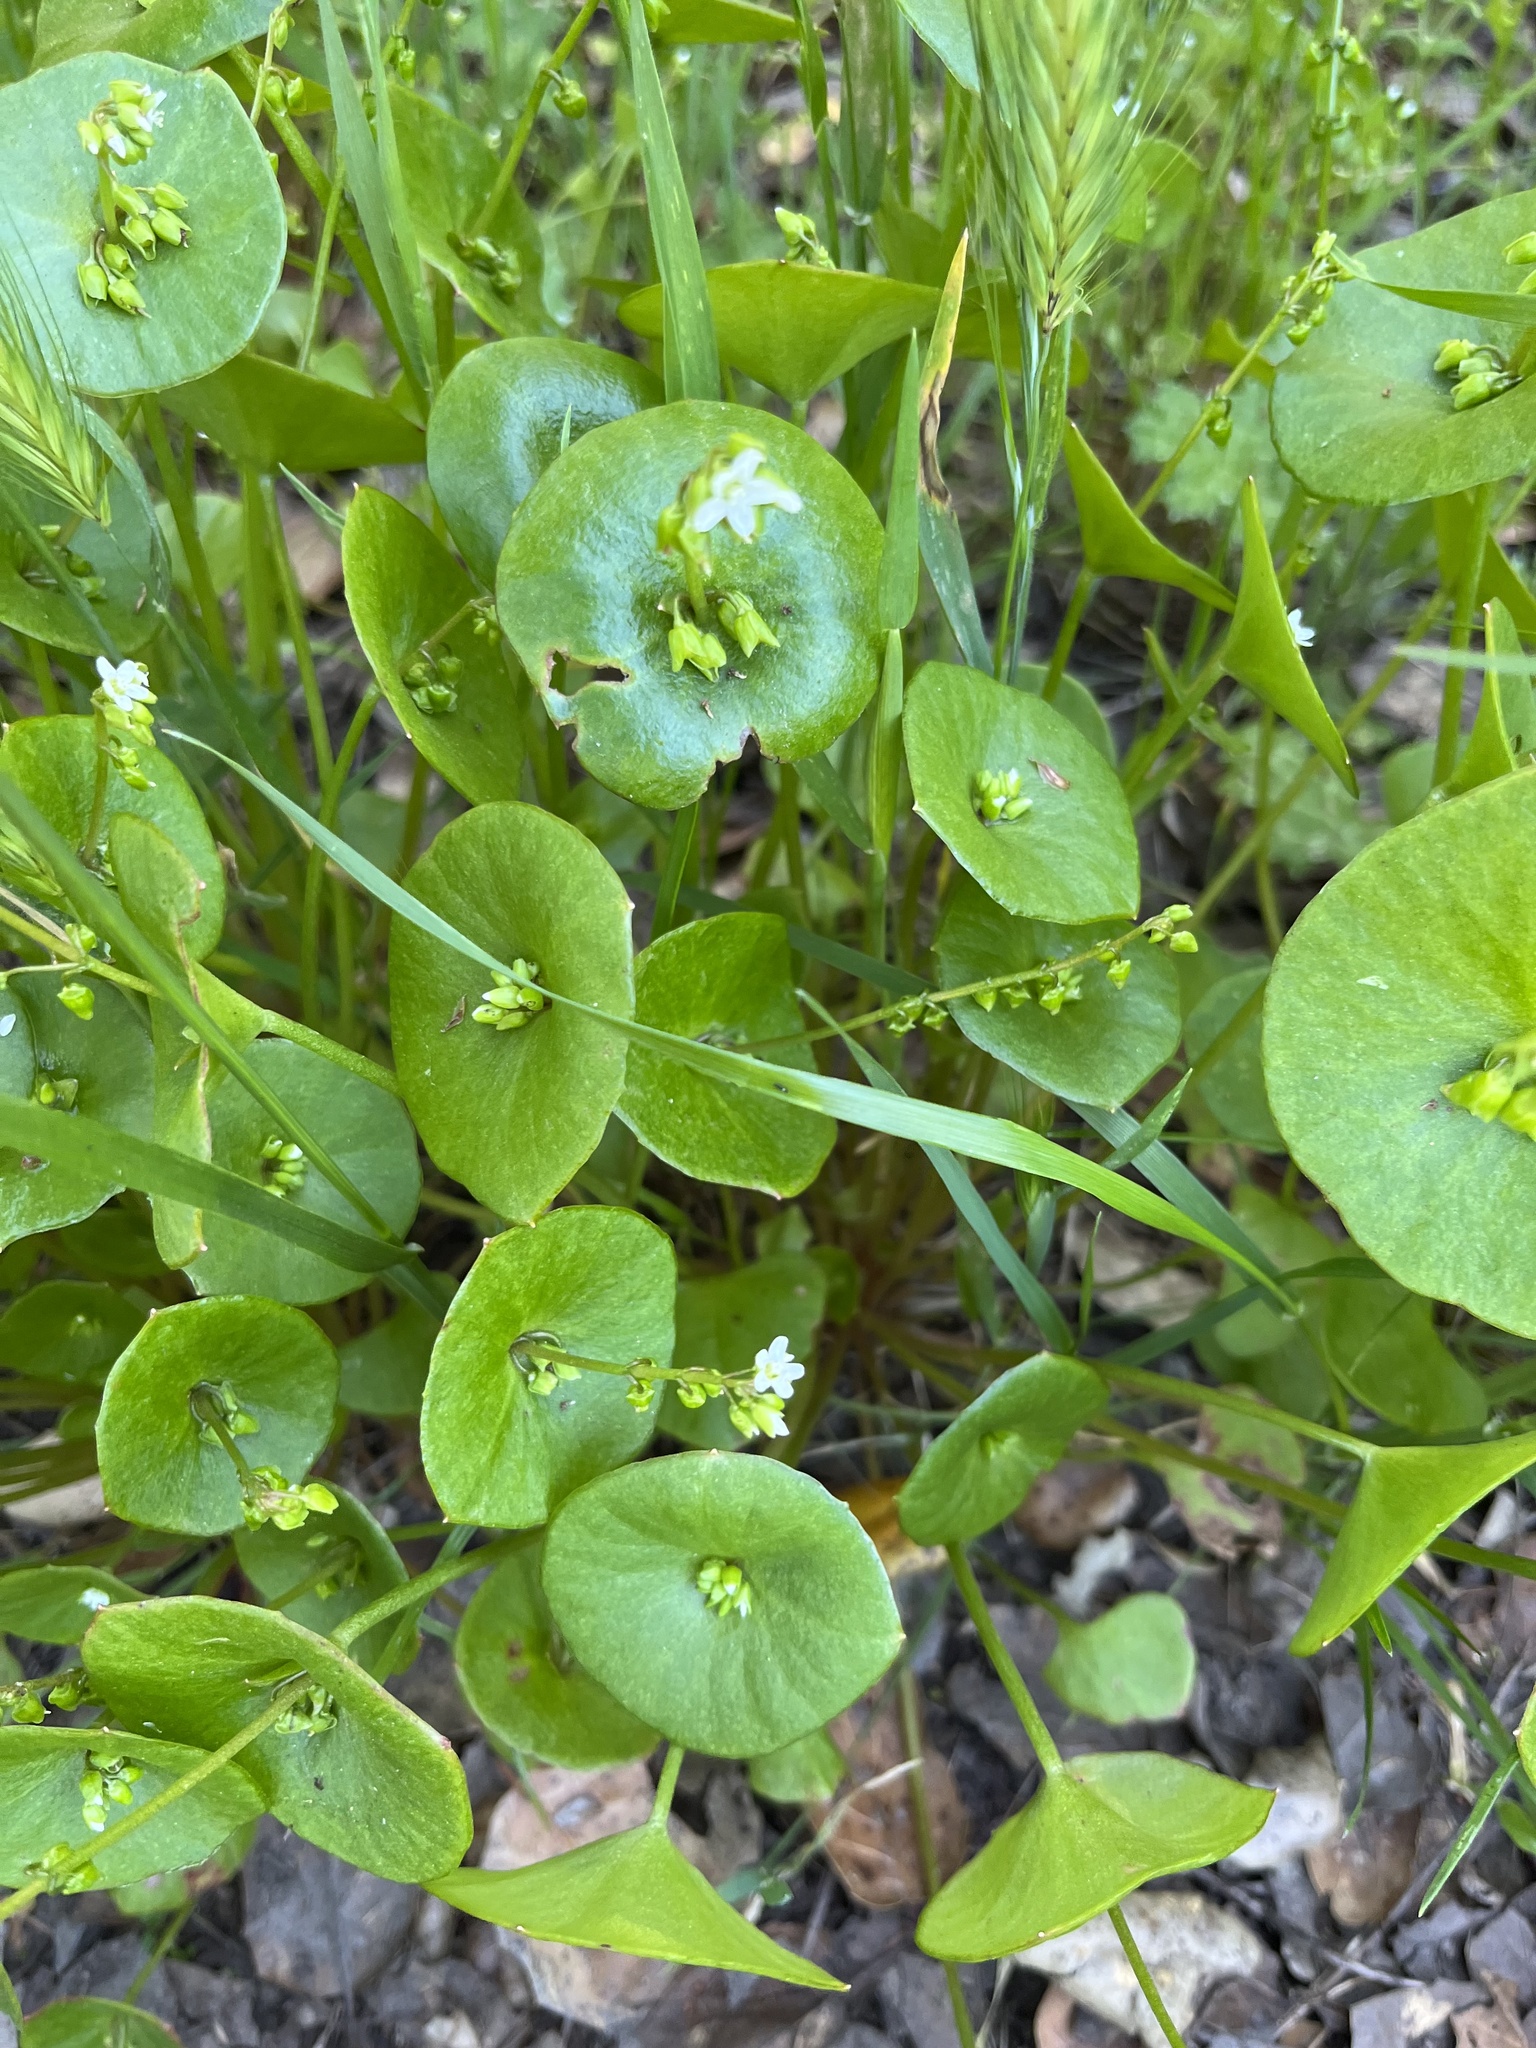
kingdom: Plantae
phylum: Tracheophyta
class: Magnoliopsida
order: Caryophyllales
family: Montiaceae
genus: Claytonia
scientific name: Claytonia perfoliata
